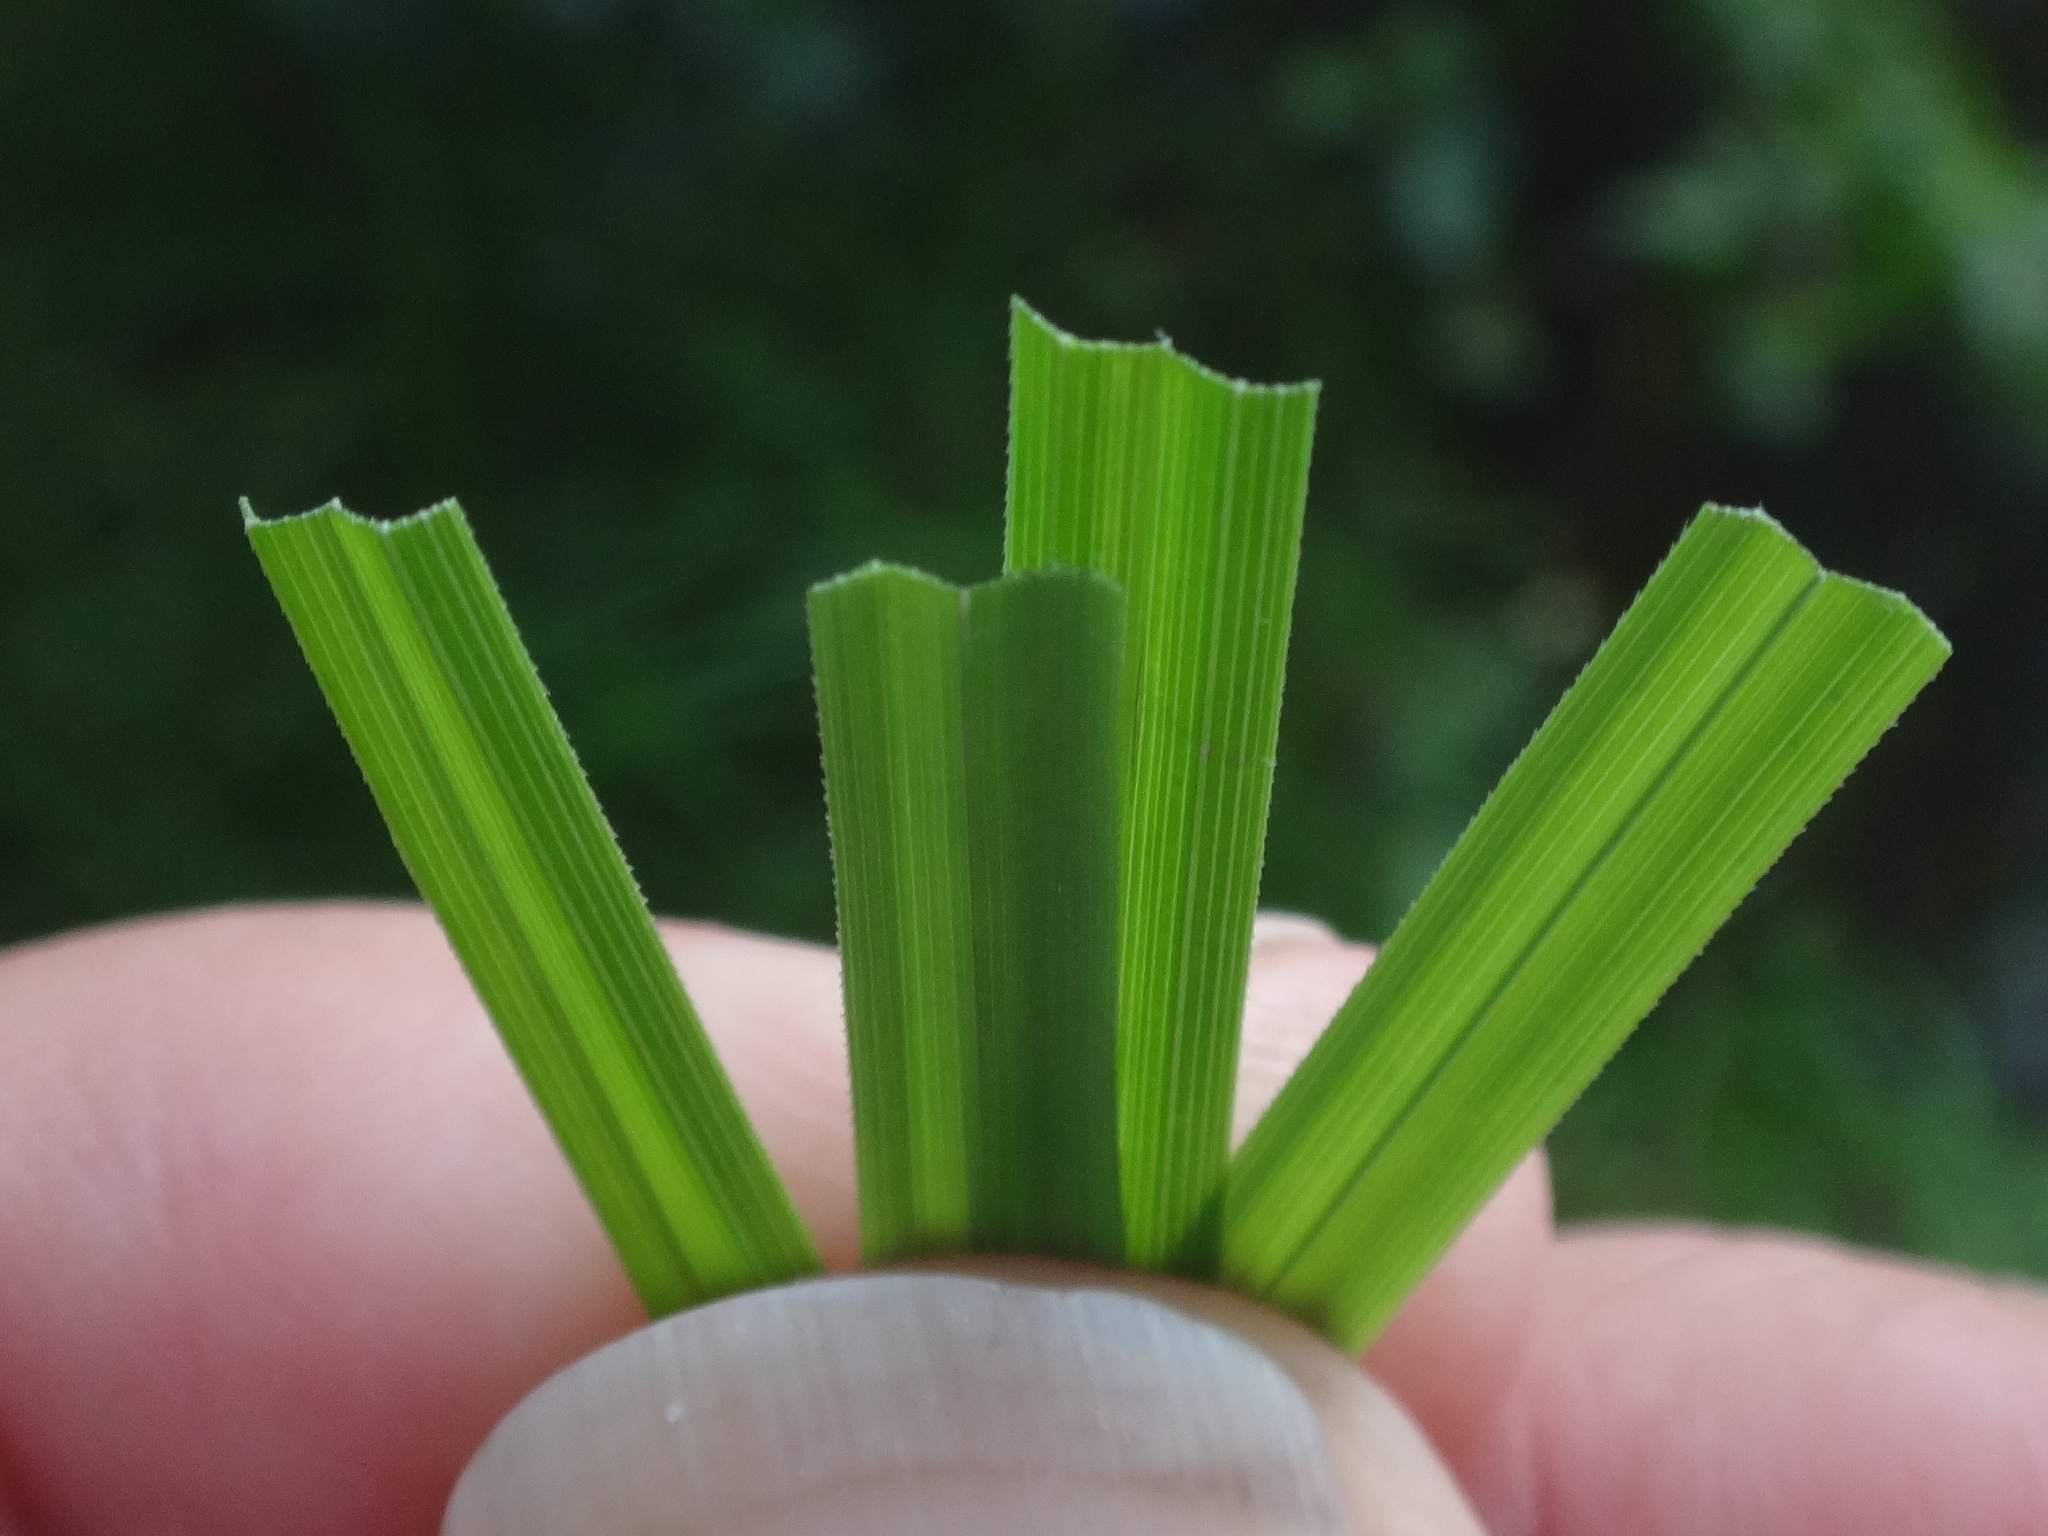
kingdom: Plantae
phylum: Tracheophyta
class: Liliopsida
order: Poales
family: Cyperaceae
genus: Carex
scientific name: Carex vesicaria
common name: Bladder-sedge
